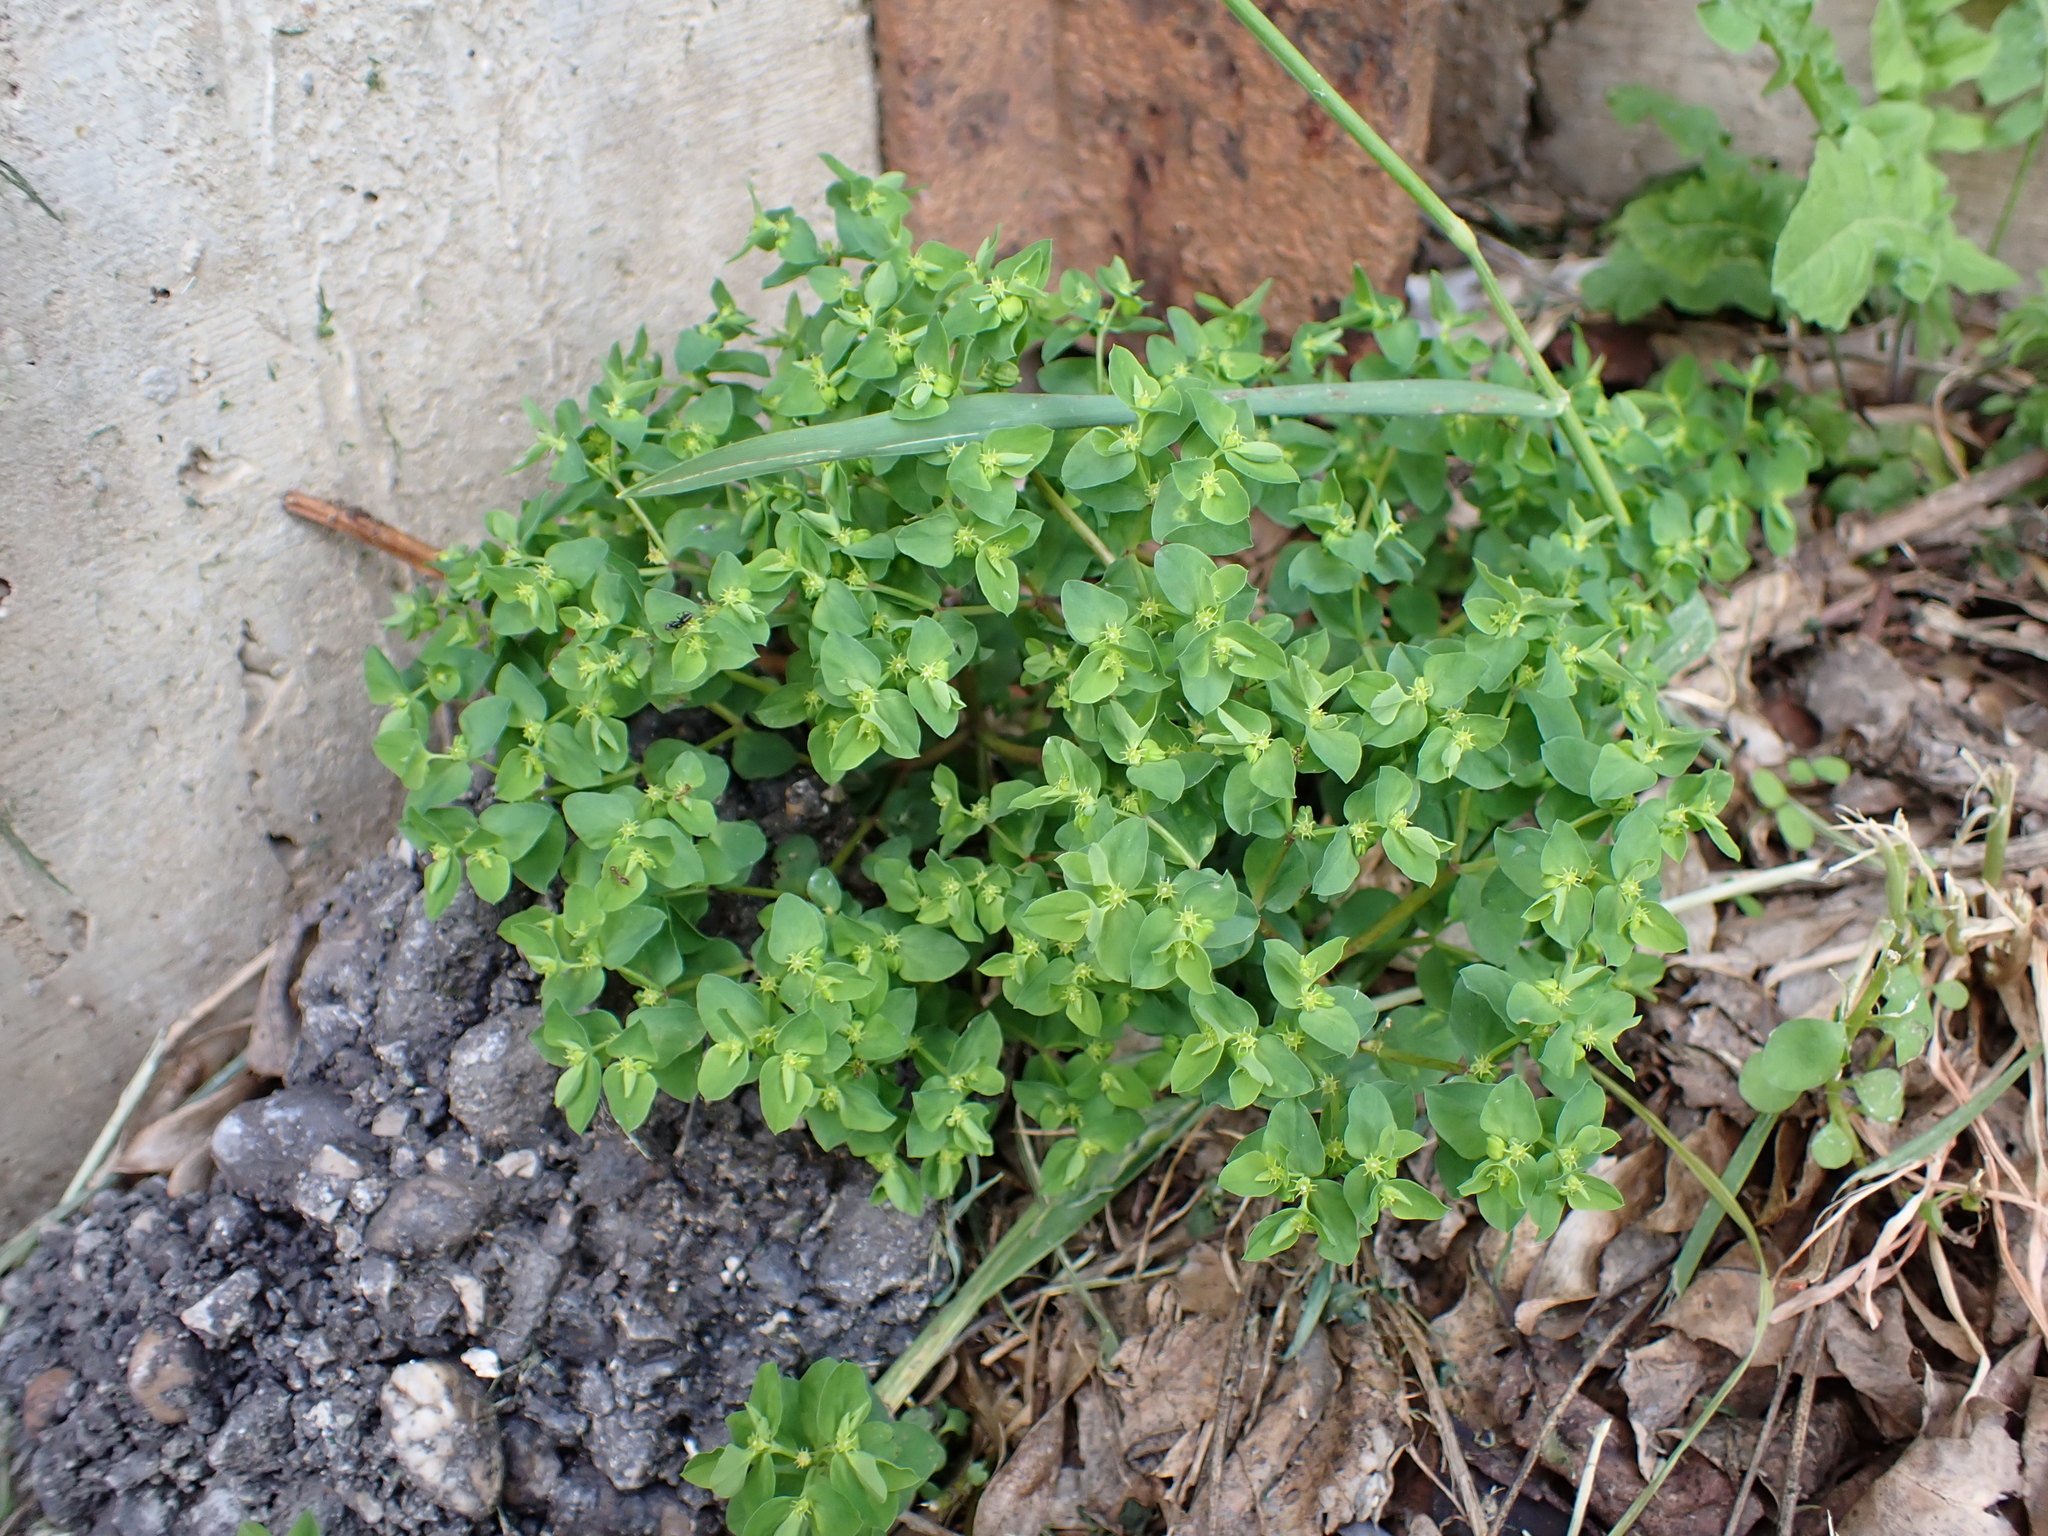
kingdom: Plantae
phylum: Tracheophyta
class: Magnoliopsida
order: Malpighiales
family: Euphorbiaceae
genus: Euphorbia
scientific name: Euphorbia peplus
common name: Petty spurge
